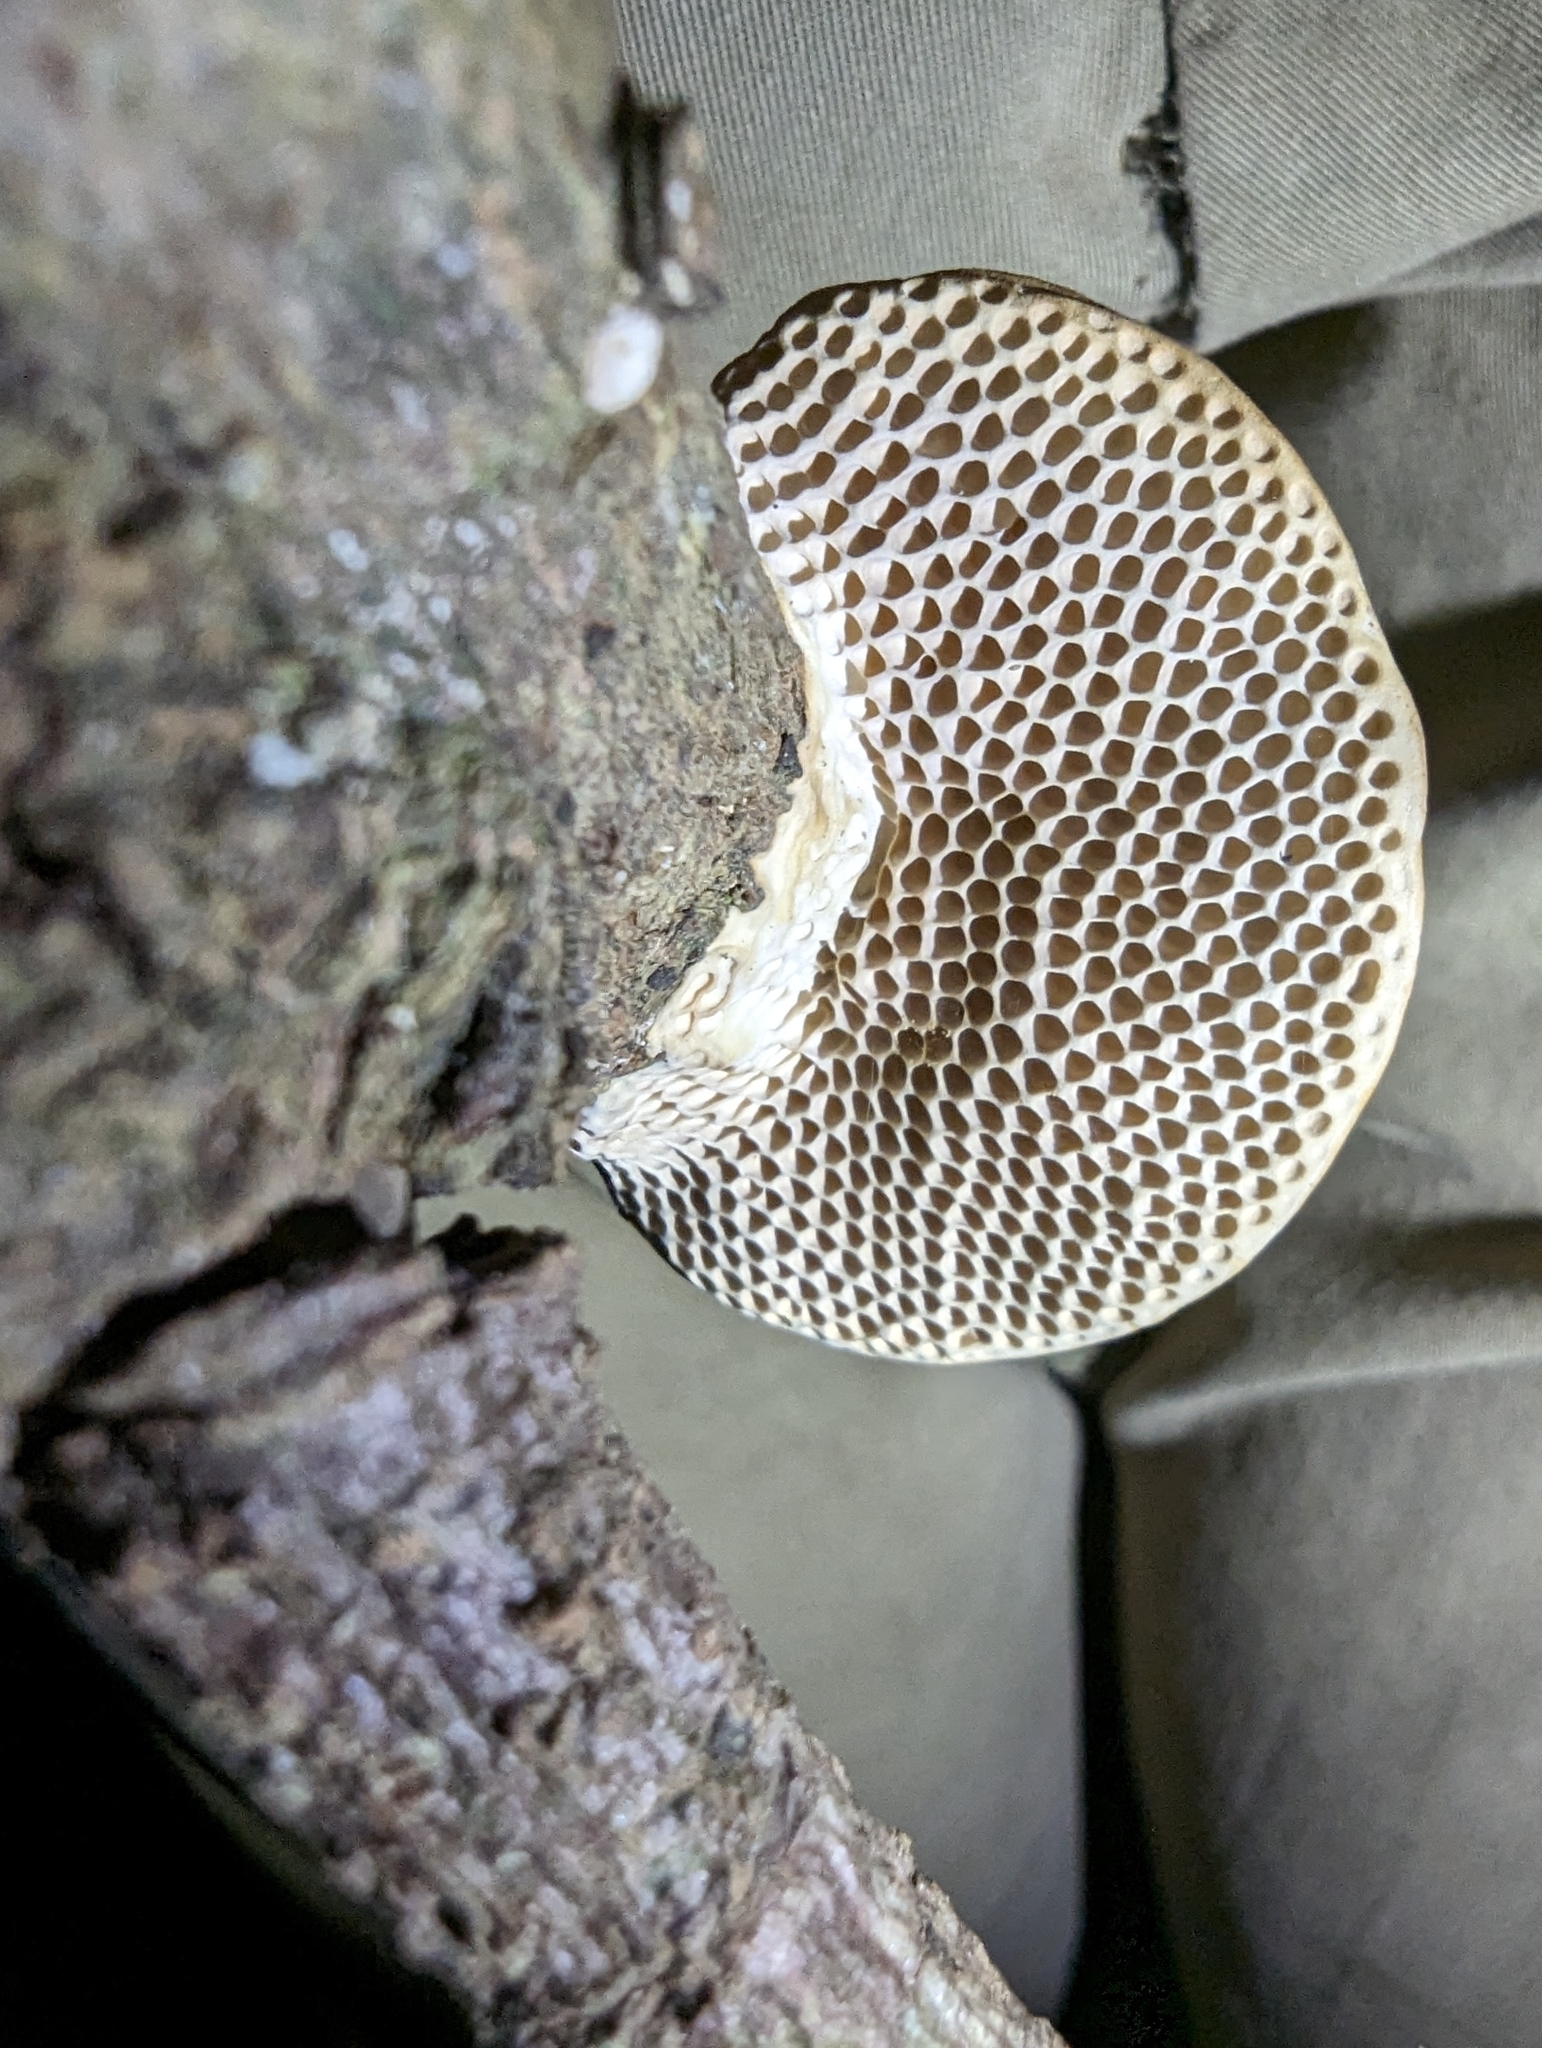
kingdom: Fungi
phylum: Basidiomycota
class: Agaricomycetes
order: Polyporales
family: Polyporaceae
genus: Pseudofavolus
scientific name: Pseudofavolus tenuis
